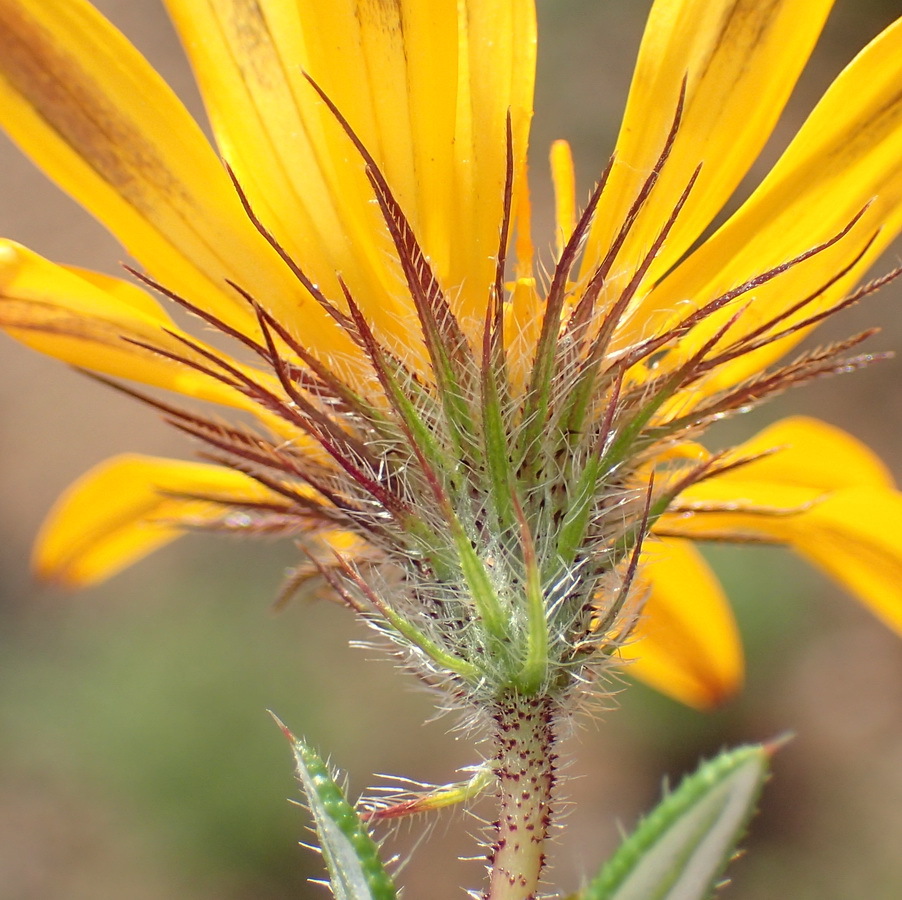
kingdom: Plantae
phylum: Tracheophyta
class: Magnoliopsida
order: Asterales
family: Asteraceae
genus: Hirpicium
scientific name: Hirpicium integrifolium
